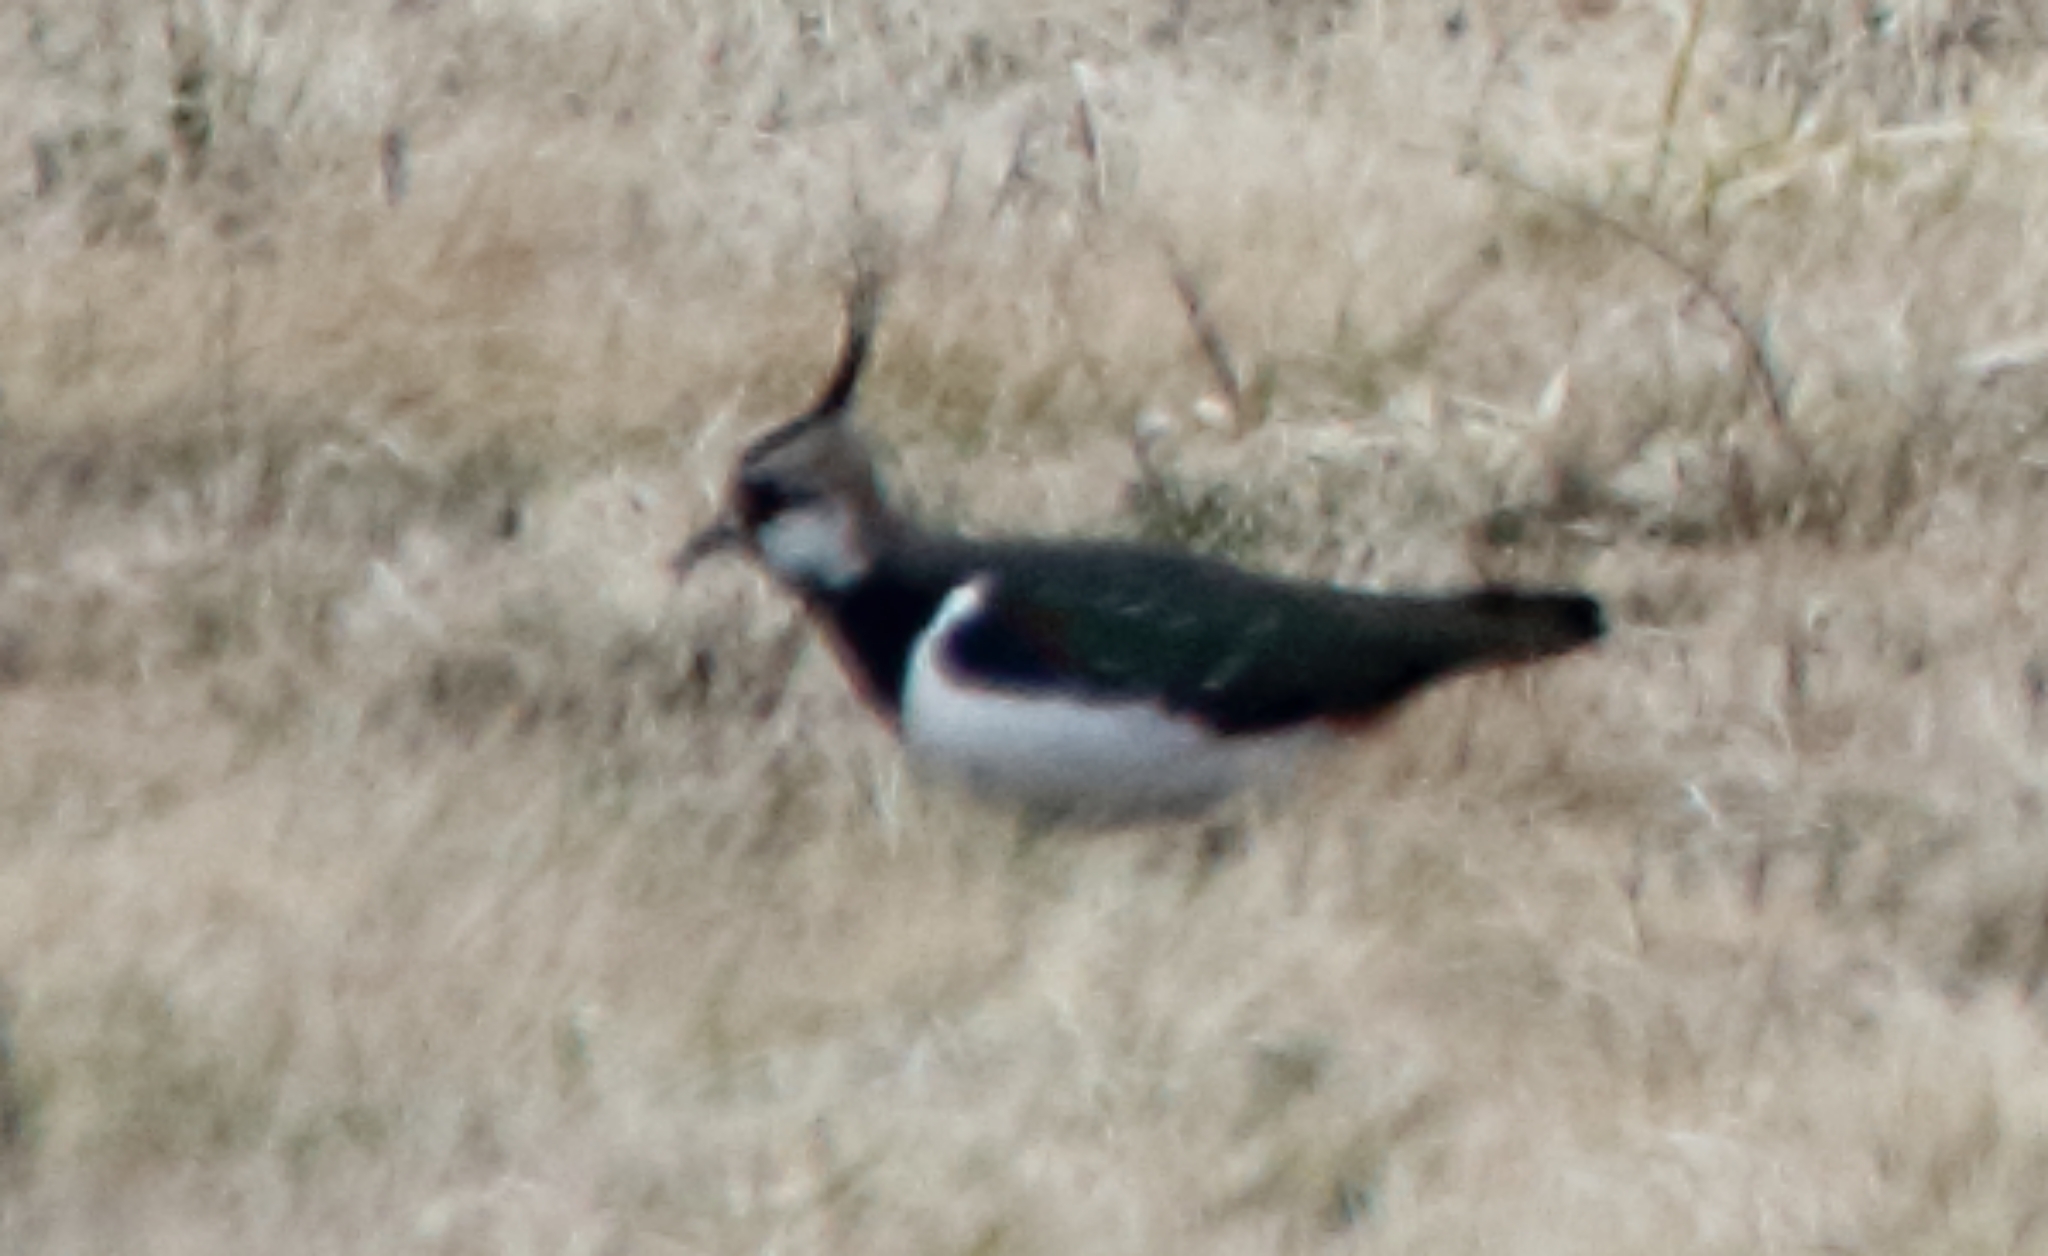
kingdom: Animalia
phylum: Chordata
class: Aves
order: Charadriiformes
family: Charadriidae
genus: Vanellus
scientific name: Vanellus vanellus
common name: Northern lapwing
